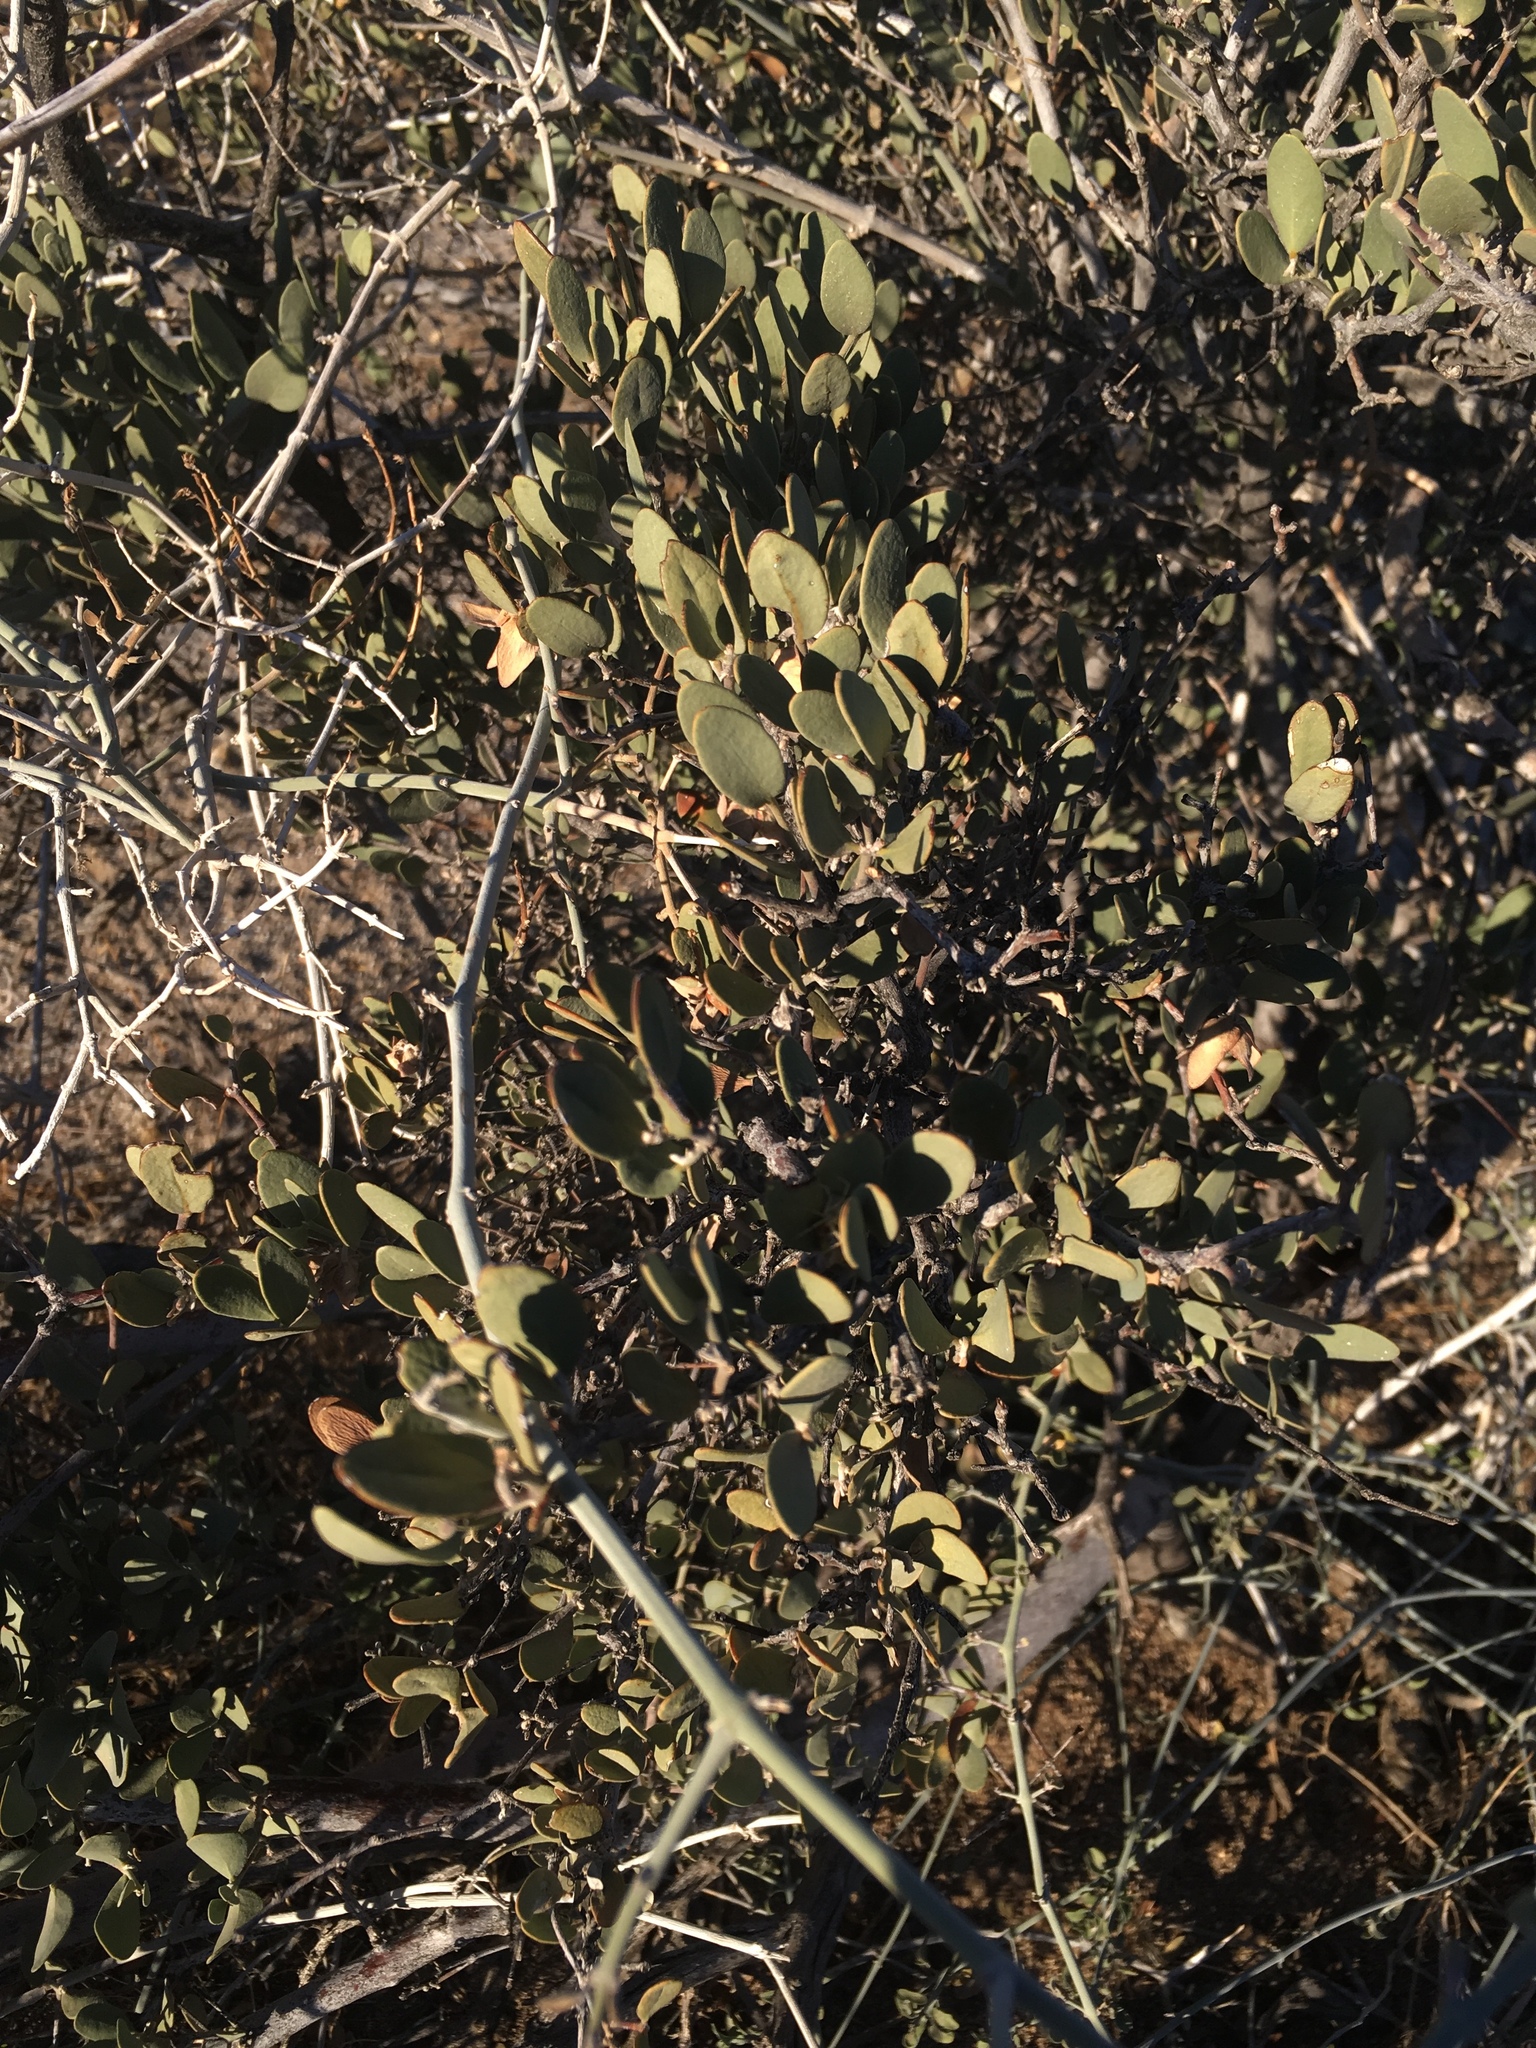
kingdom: Plantae
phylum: Tracheophyta
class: Magnoliopsida
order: Caryophyllales
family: Simmondsiaceae
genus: Simmondsia
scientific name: Simmondsia chinensis
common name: Jojoba
